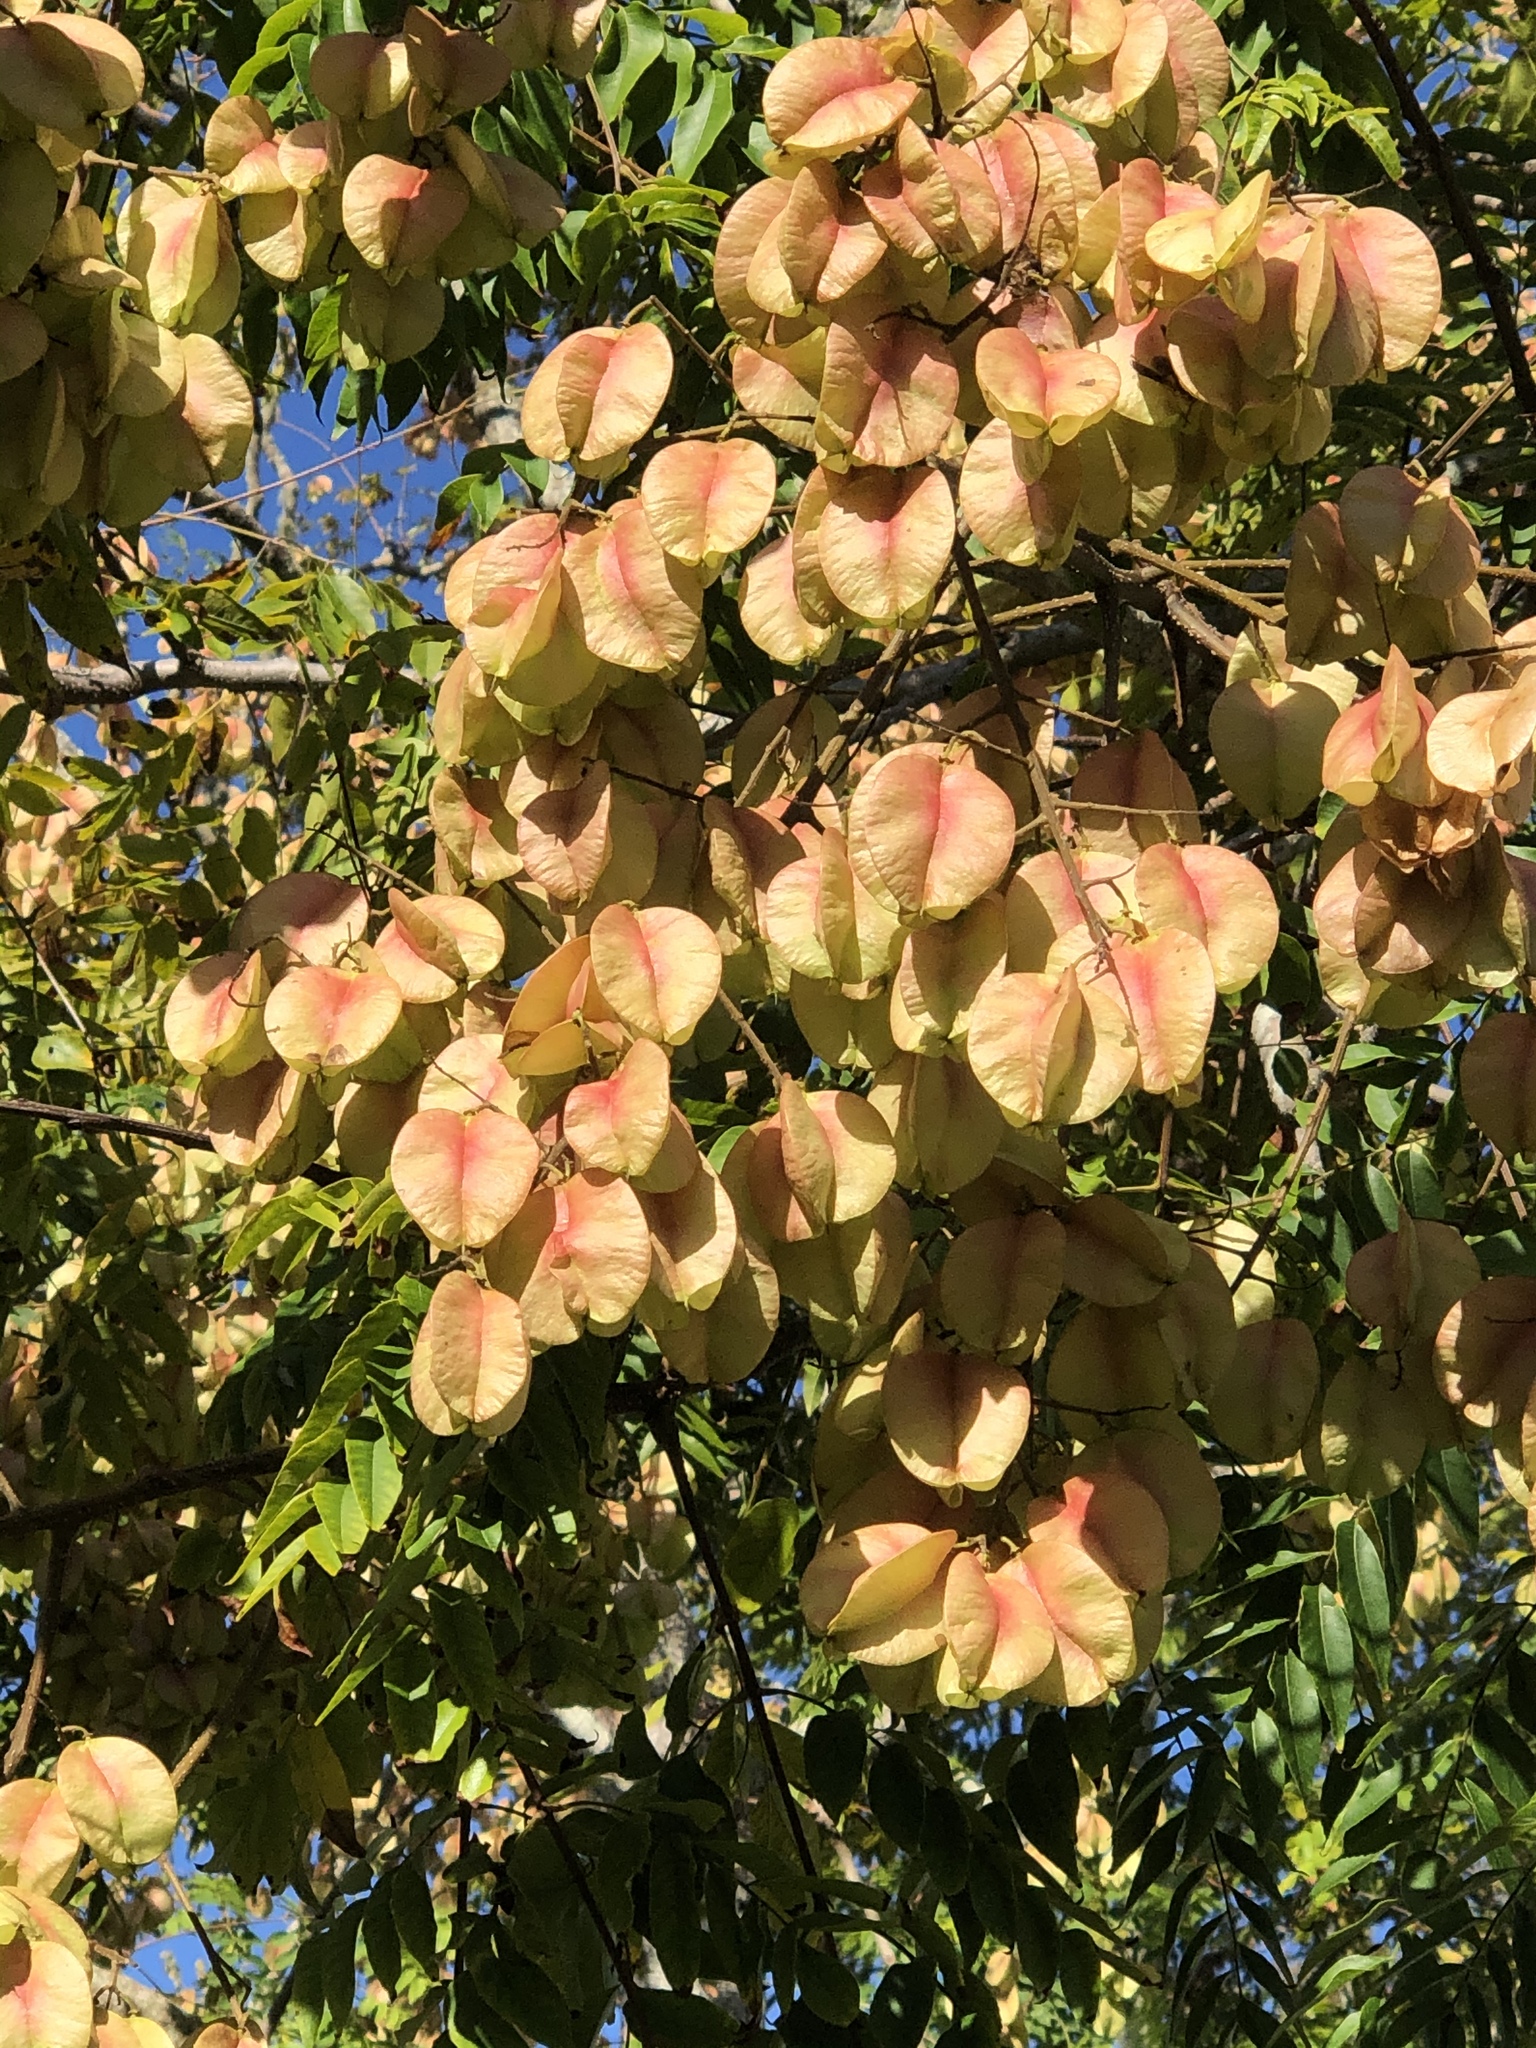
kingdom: Plantae
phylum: Tracheophyta
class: Magnoliopsida
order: Sapindales
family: Sapindaceae
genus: Koelreuteria
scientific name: Koelreuteria elegans
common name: Chinese flame tree
